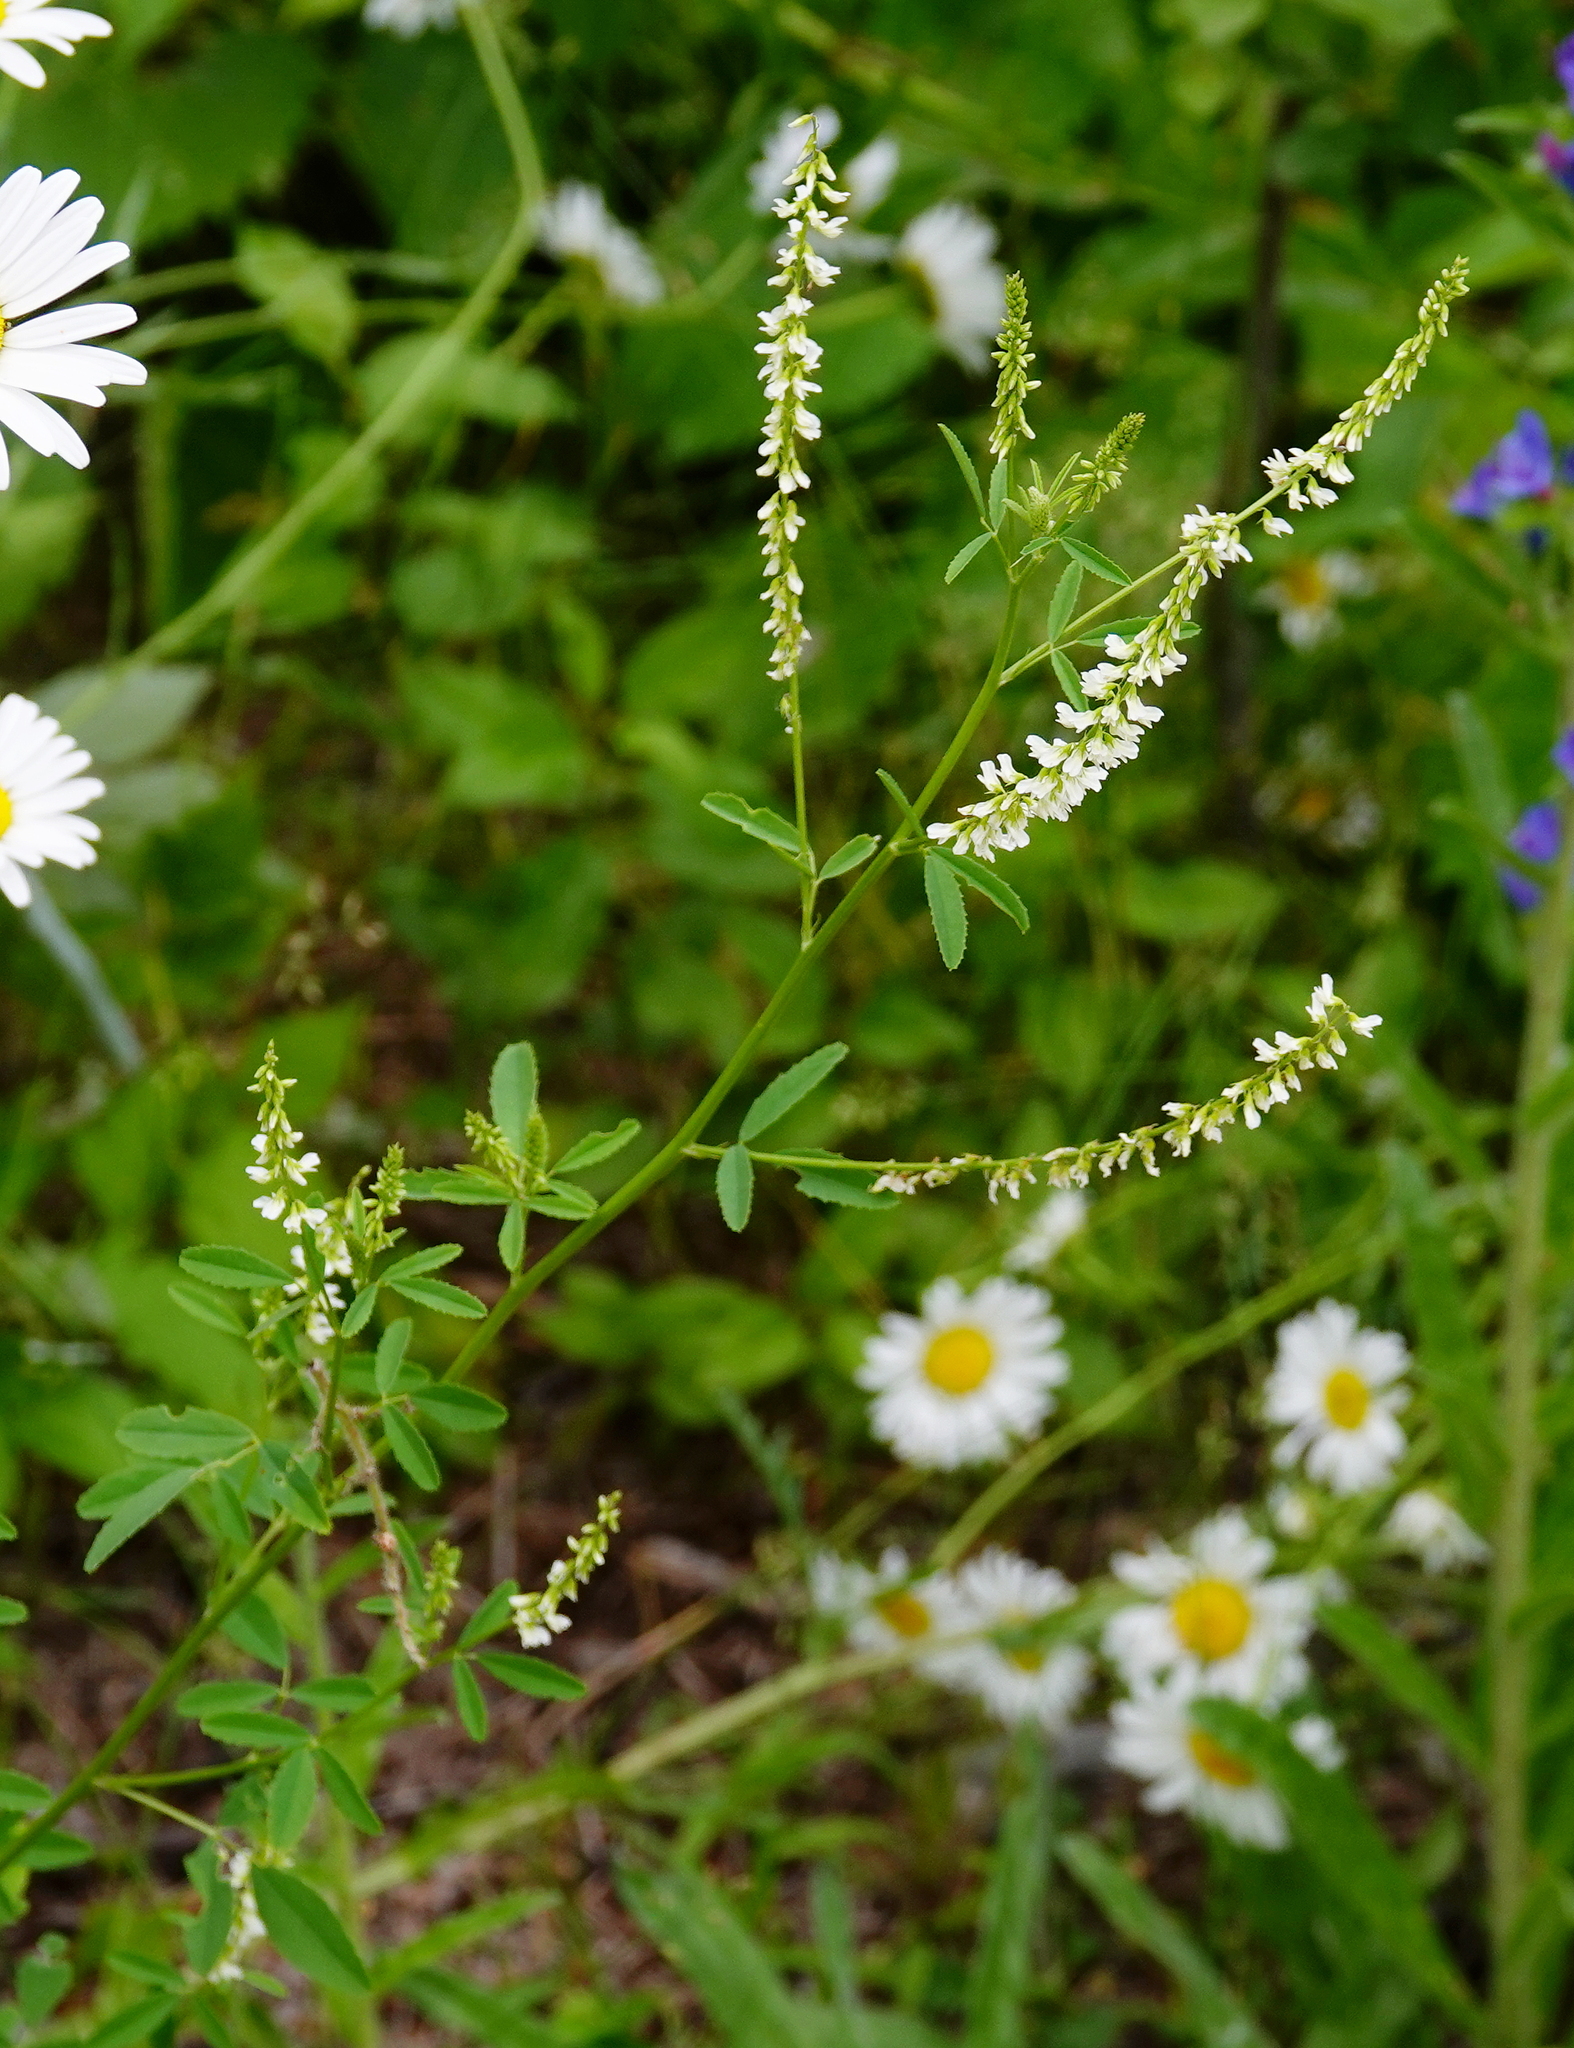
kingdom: Plantae
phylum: Tracheophyta
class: Magnoliopsida
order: Fabales
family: Fabaceae
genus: Melilotus
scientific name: Melilotus albus
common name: White melilot
